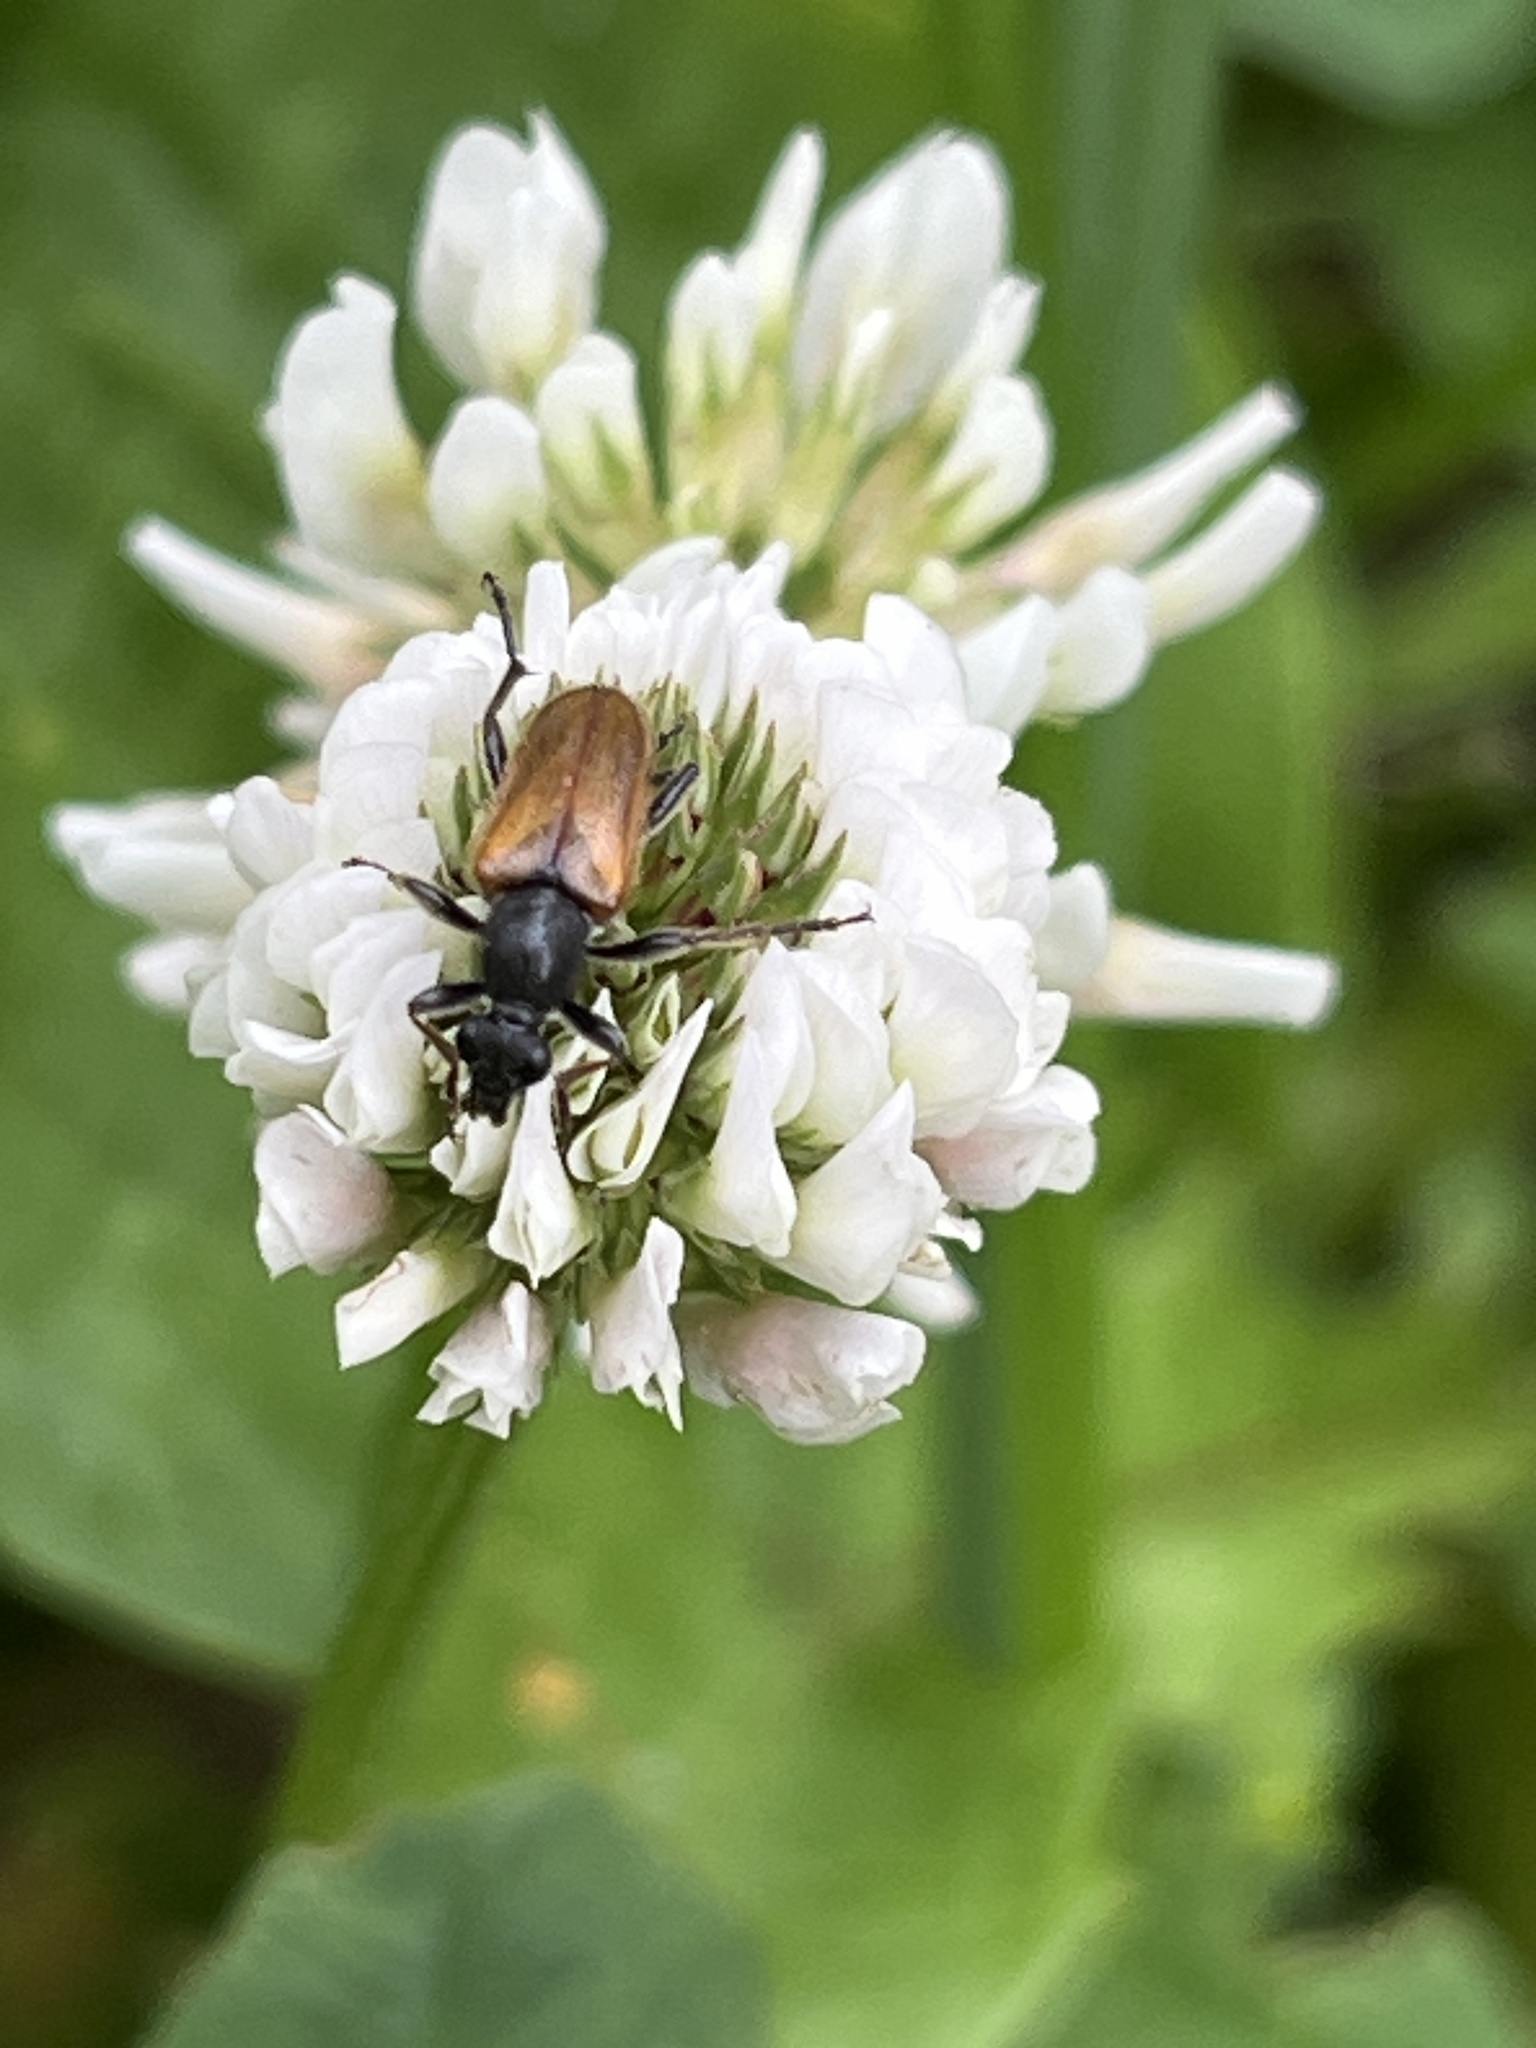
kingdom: Animalia
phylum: Arthropoda
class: Insecta
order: Coleoptera
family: Cerambycidae
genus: Pseudovadonia
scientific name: Pseudovadonia livida
